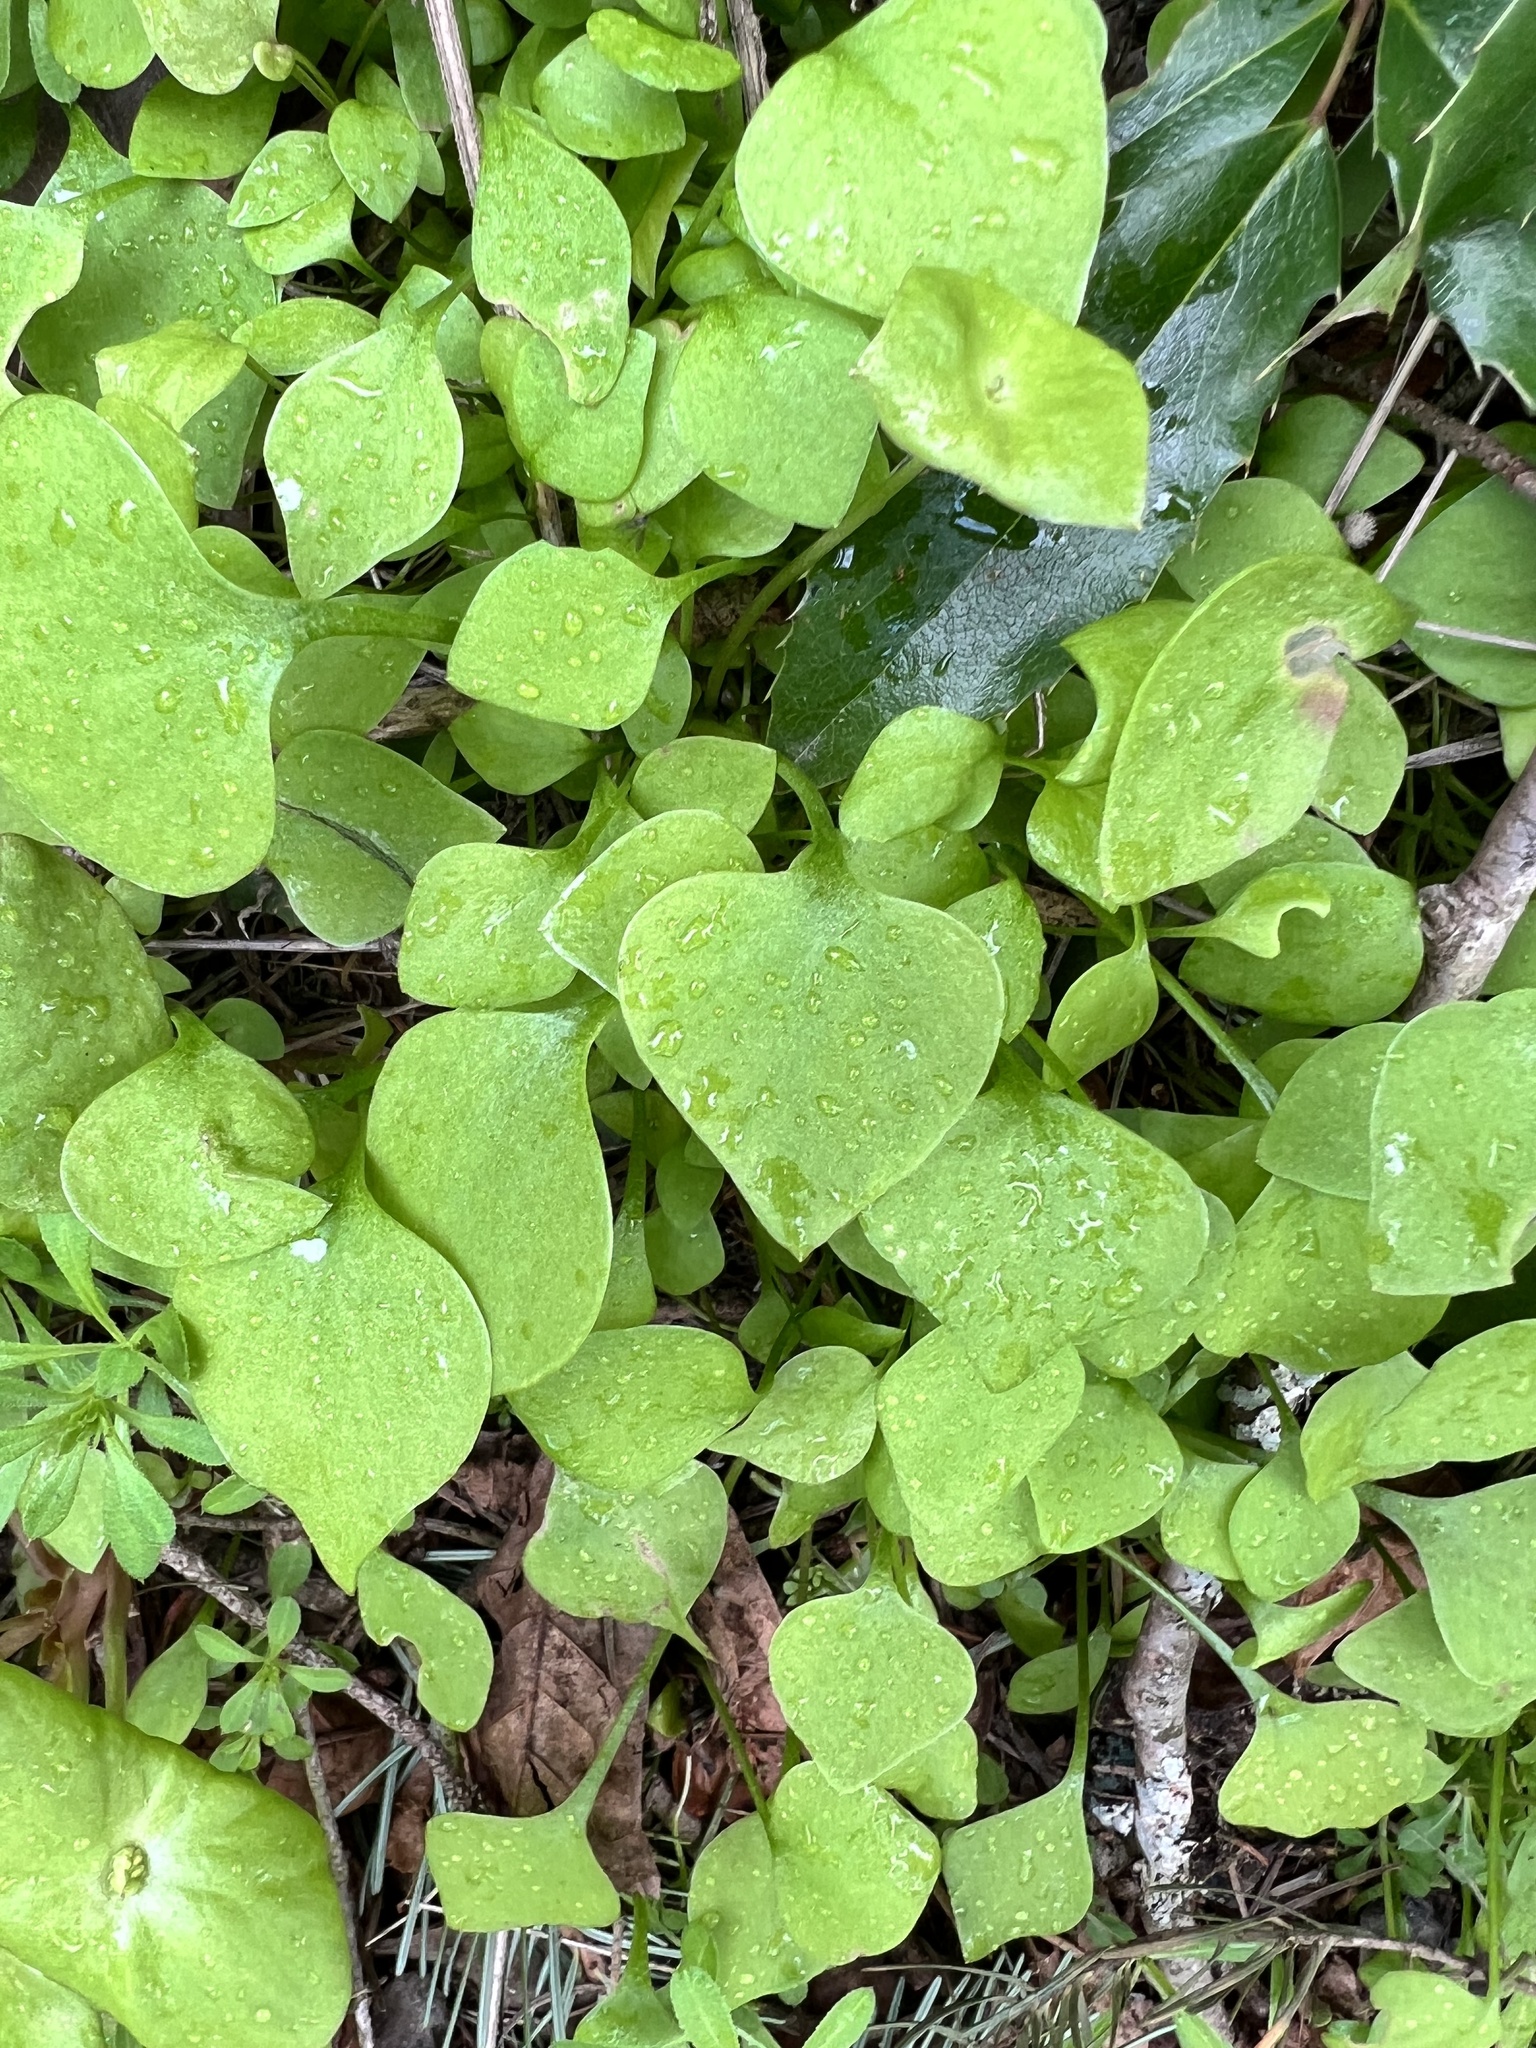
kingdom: Plantae
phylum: Tracheophyta
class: Magnoliopsida
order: Caryophyllales
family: Montiaceae
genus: Claytonia
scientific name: Claytonia perfoliata
